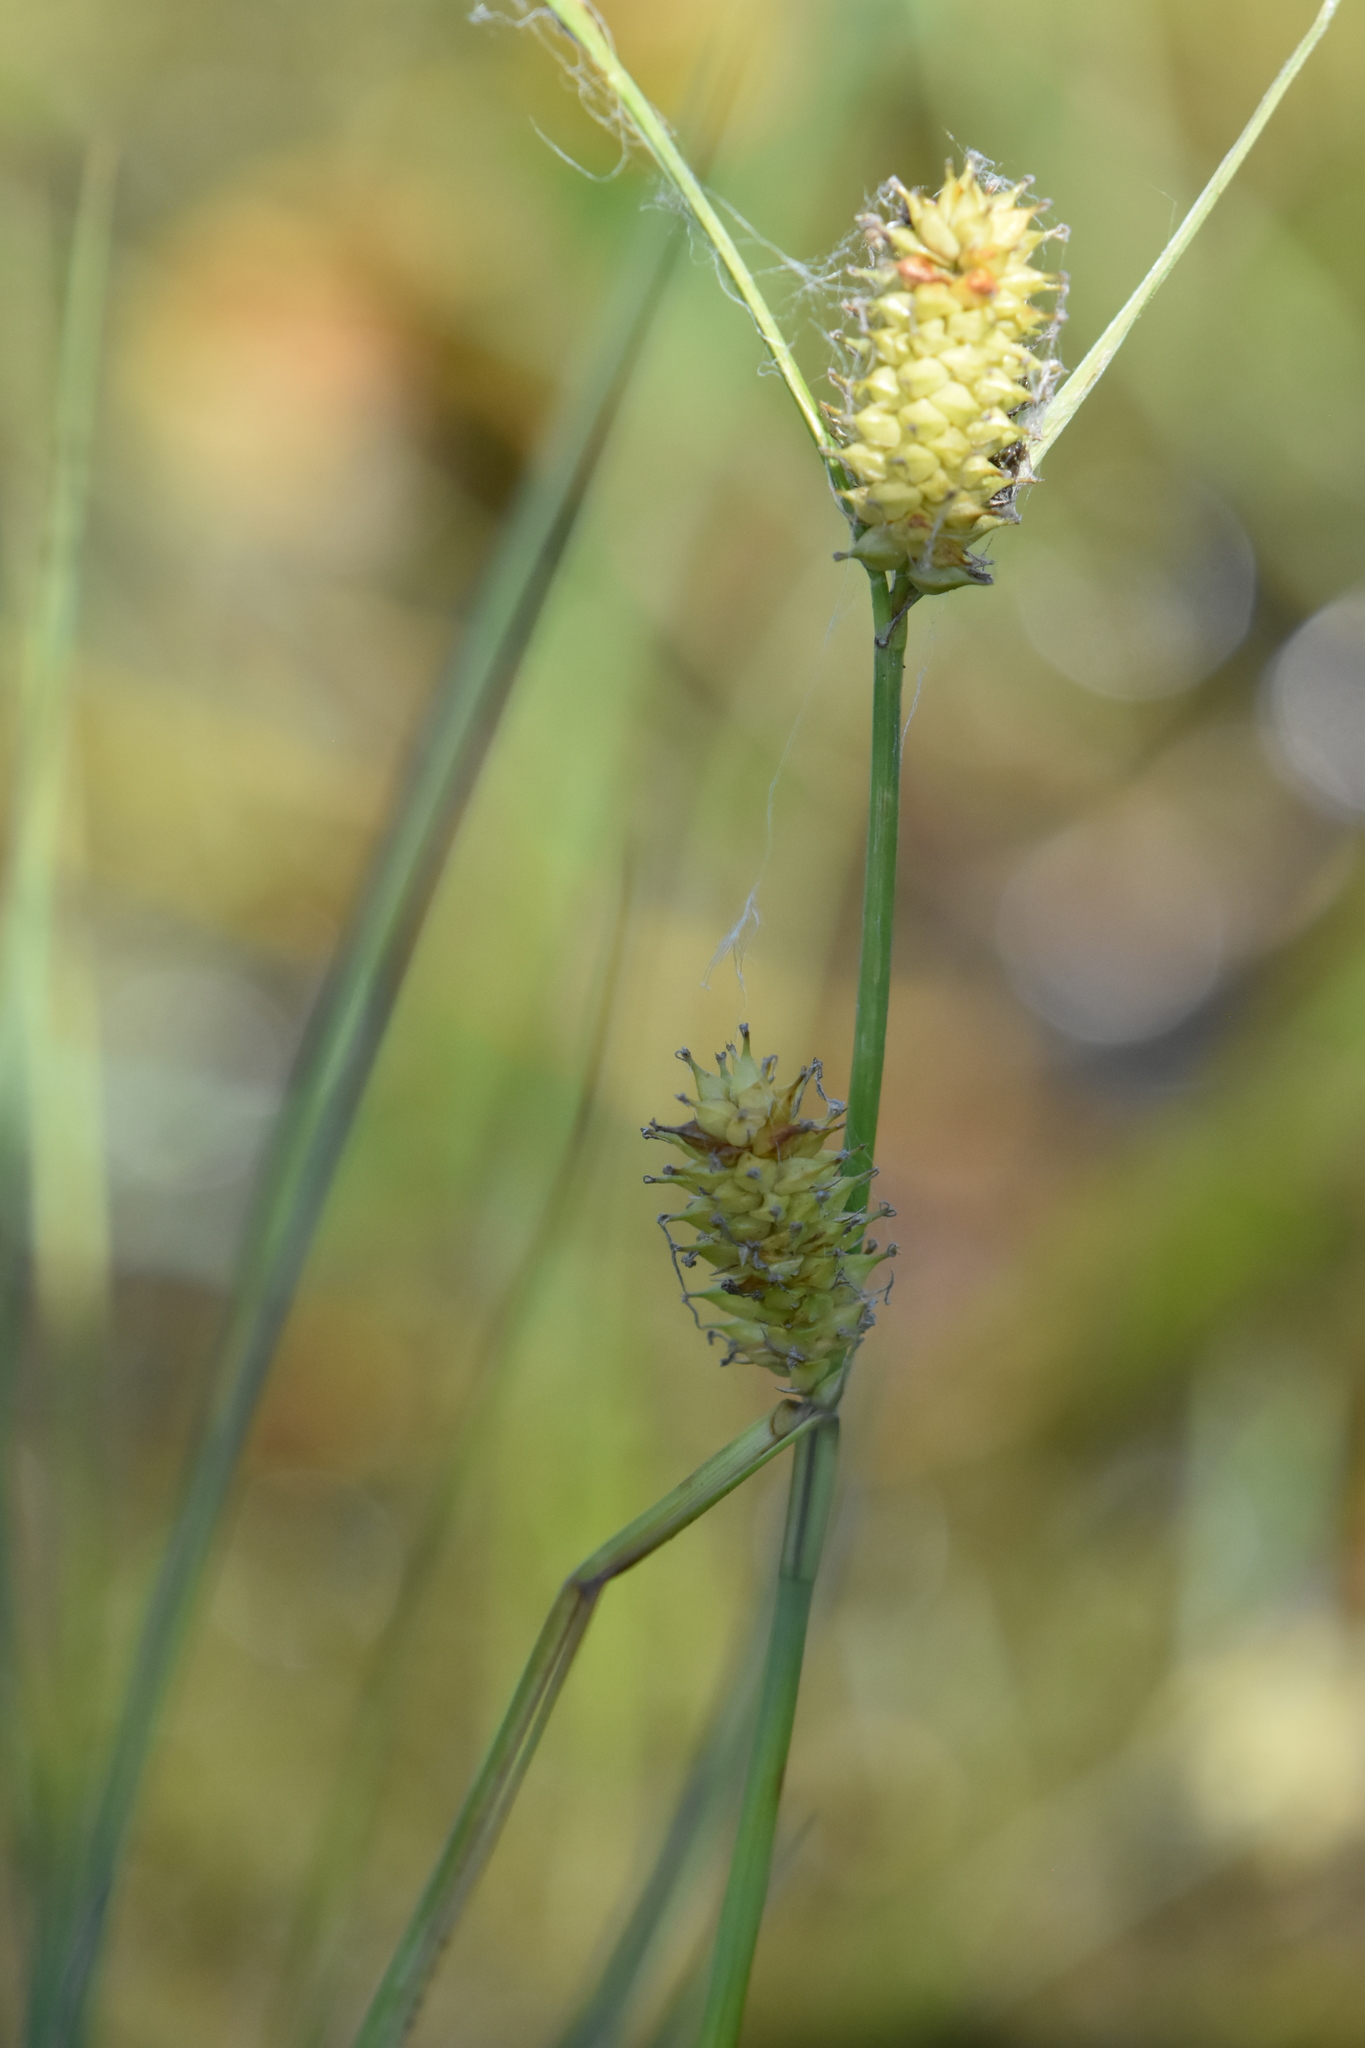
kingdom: Plantae
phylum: Tracheophyta
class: Liliopsida
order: Poales
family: Cyperaceae
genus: Carex
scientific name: Carex rostrata
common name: Bottle sedge
